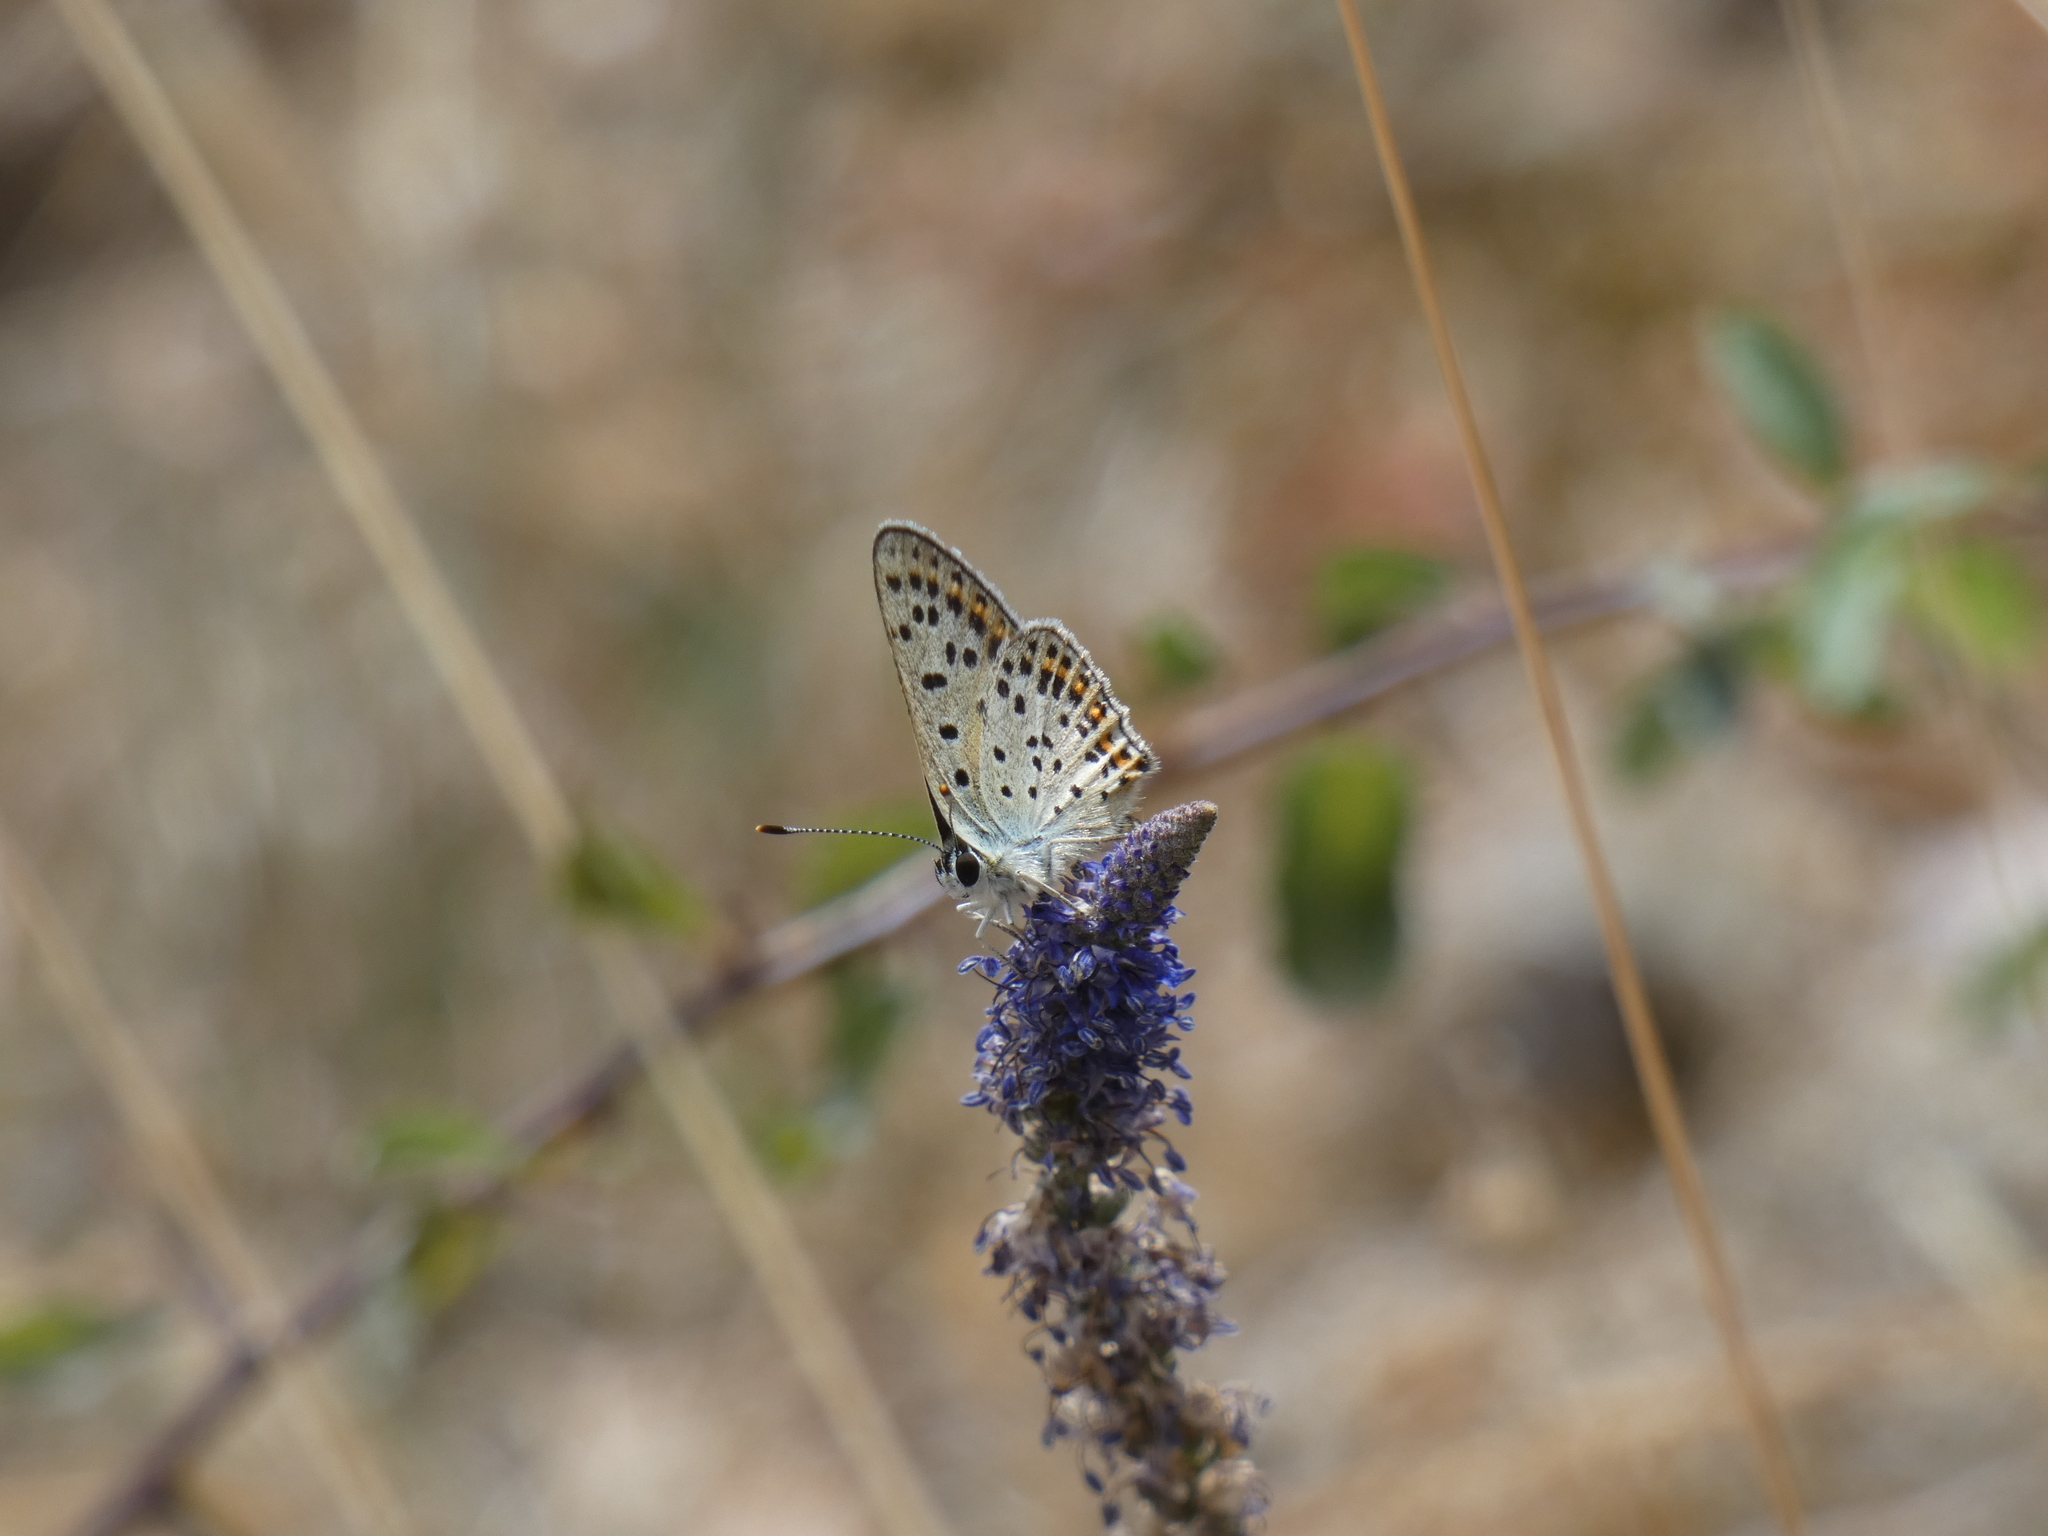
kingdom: Animalia
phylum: Arthropoda
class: Insecta
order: Lepidoptera
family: Lycaenidae
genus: Loweia
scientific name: Loweia tityrus
